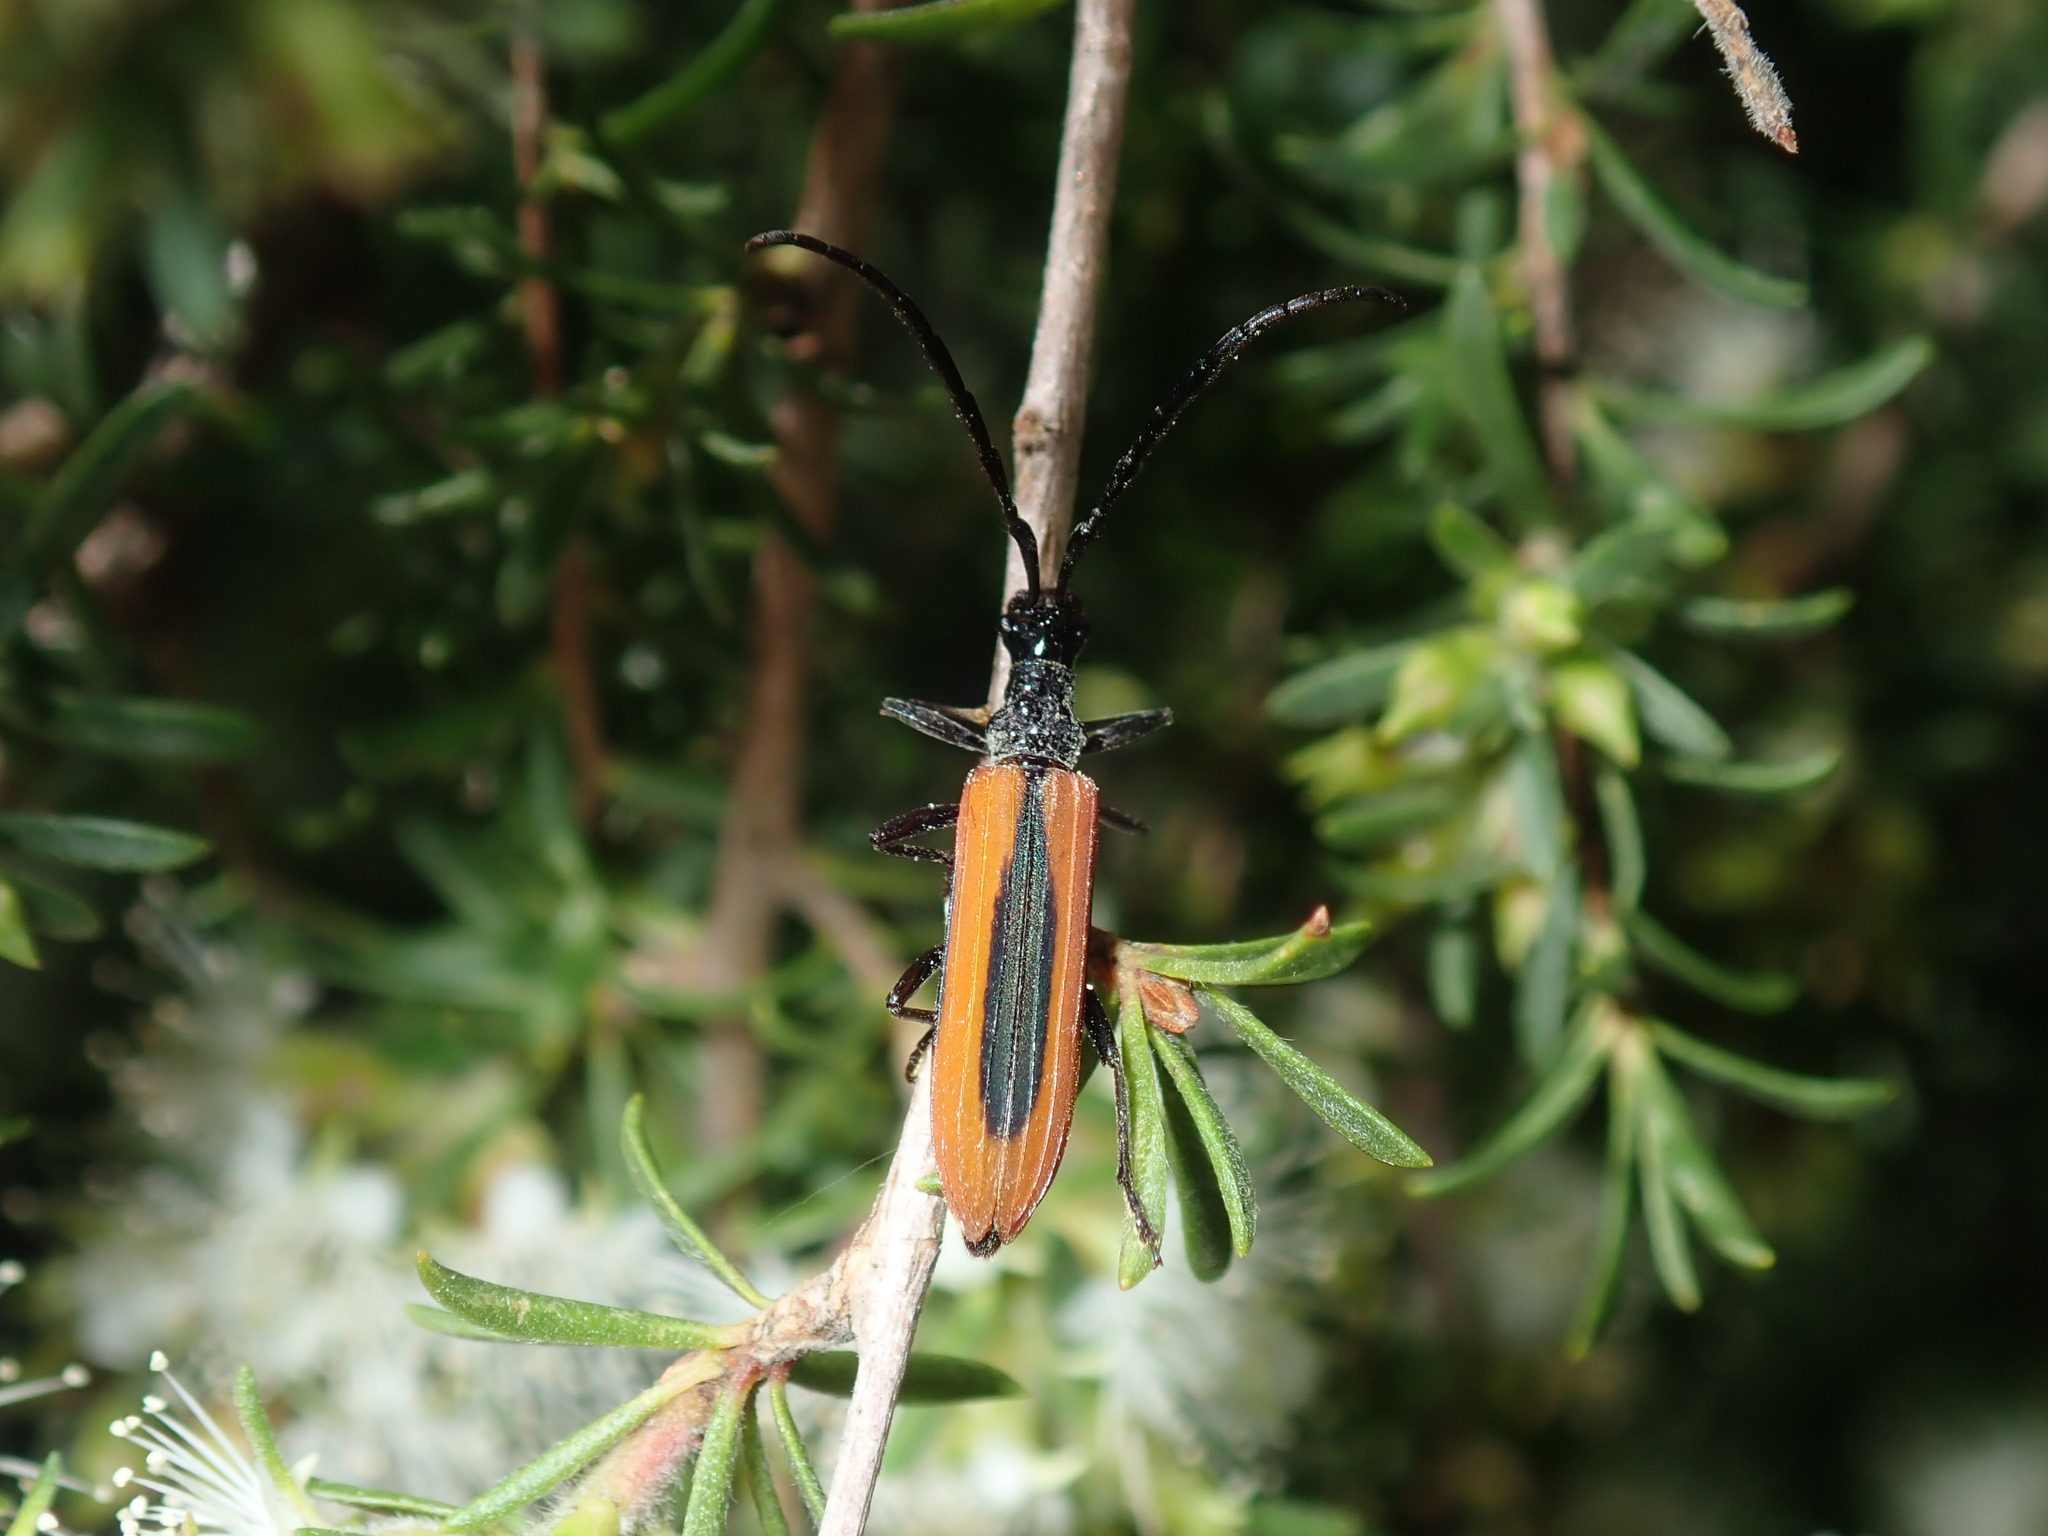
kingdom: Animalia
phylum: Arthropoda
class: Insecta
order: Coleoptera
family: Cerambycidae
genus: Stenoderus
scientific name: Stenoderus suturalis
